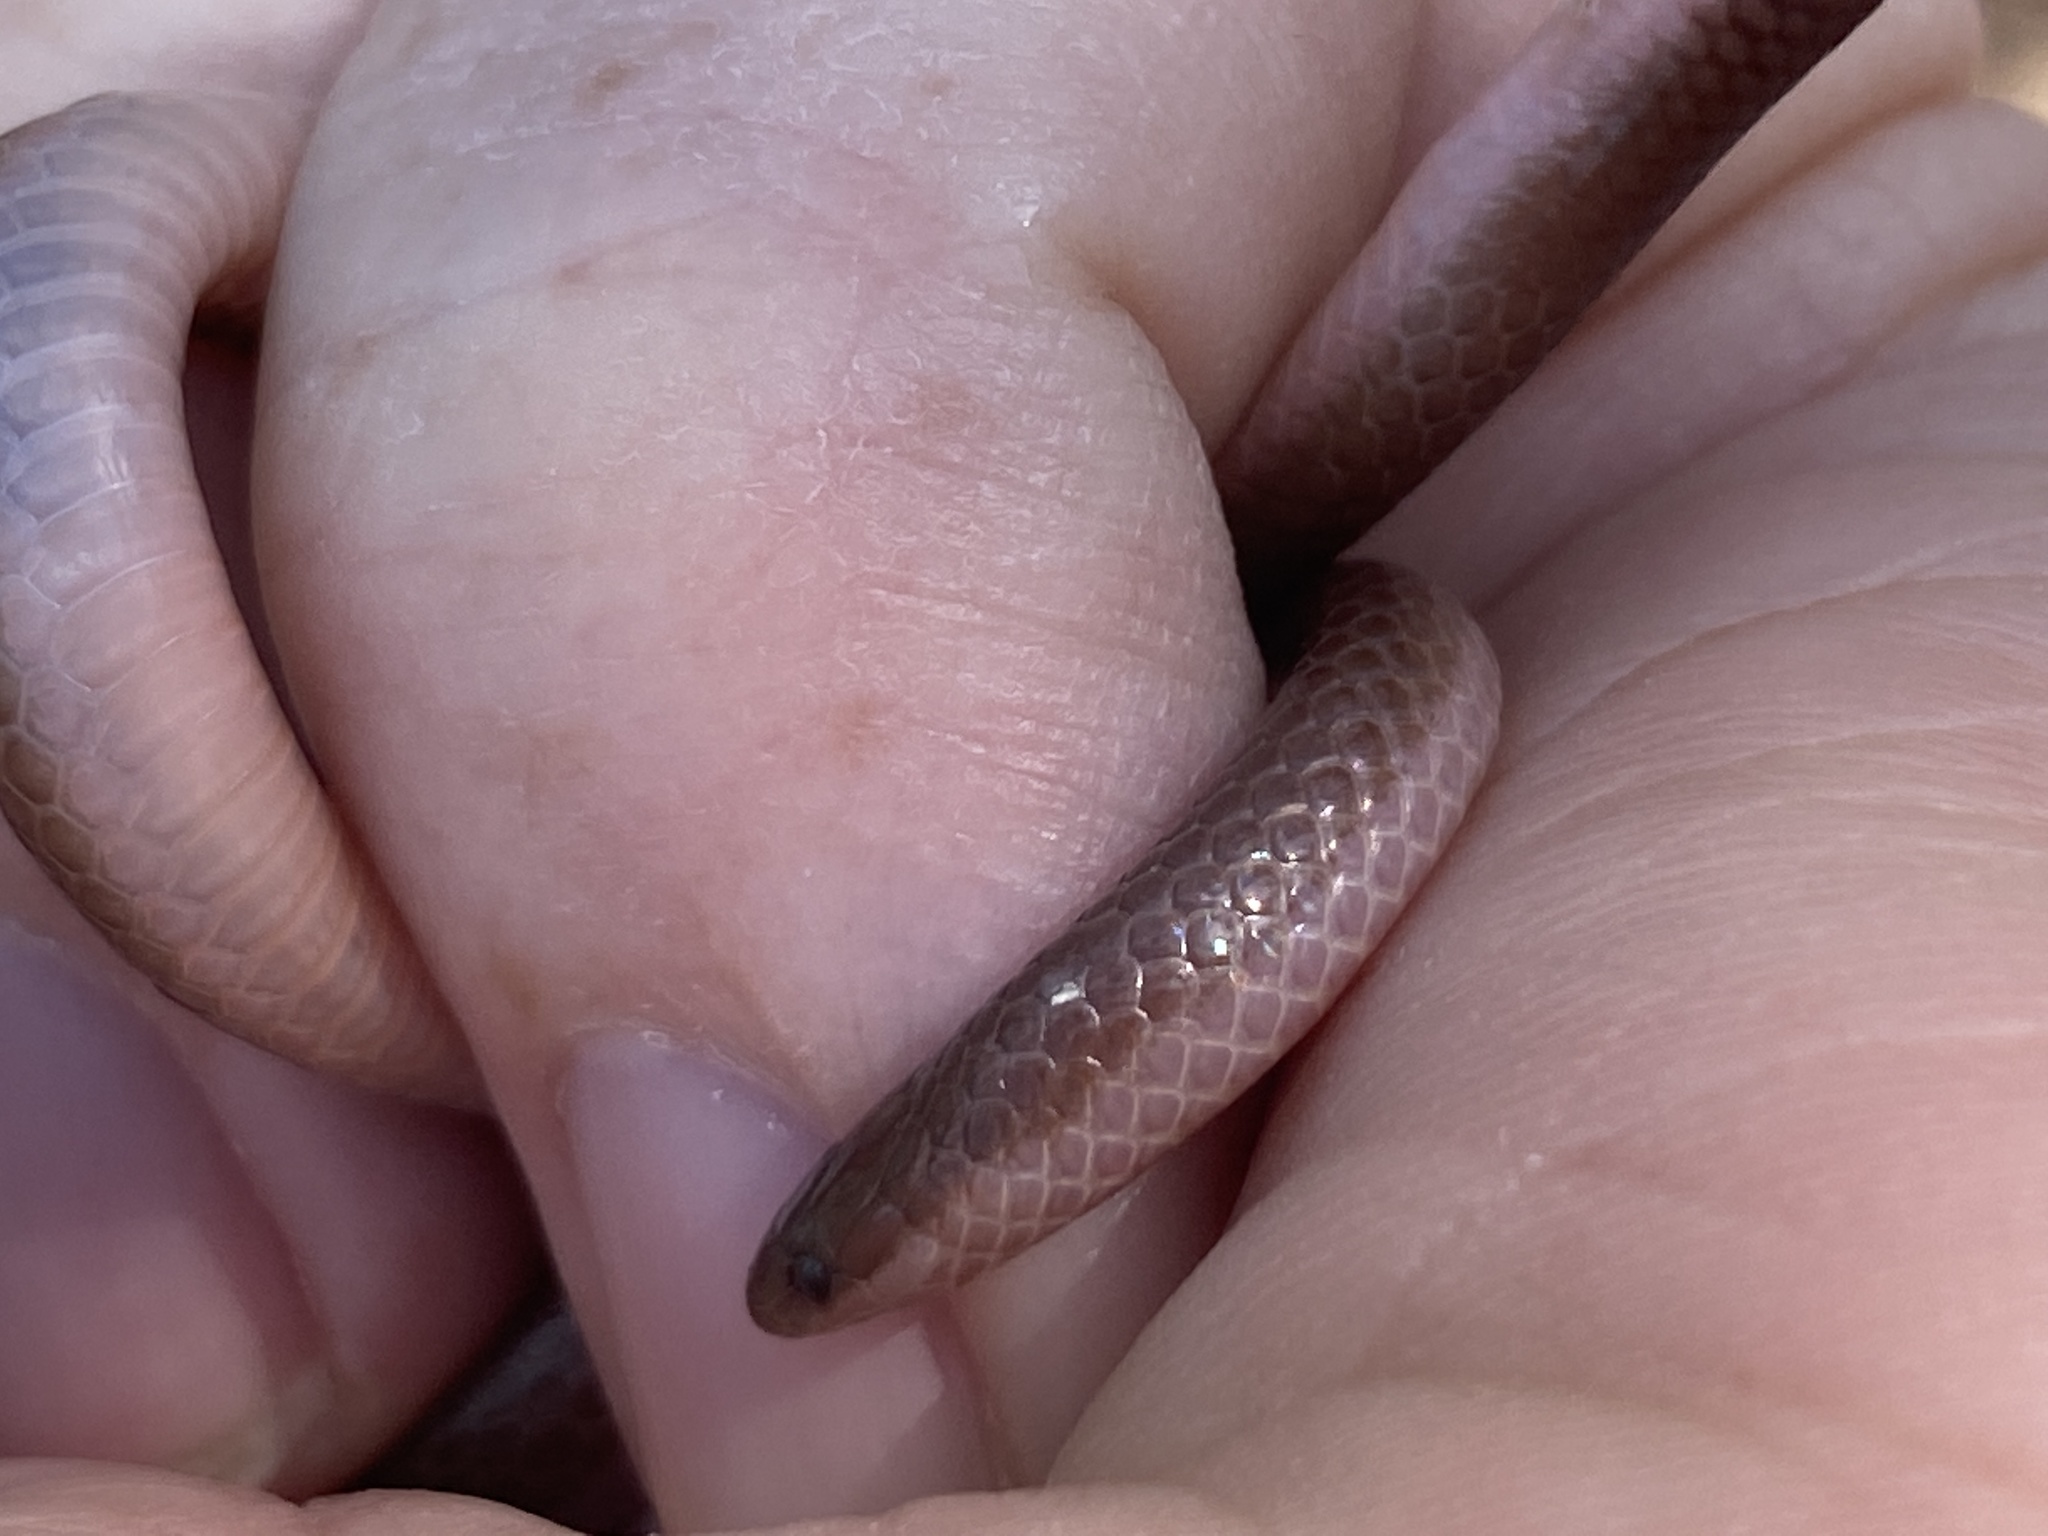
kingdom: Animalia
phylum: Chordata
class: Squamata
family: Colubridae
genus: Carphophis
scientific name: Carphophis amoenus
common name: Eastern worm snake
